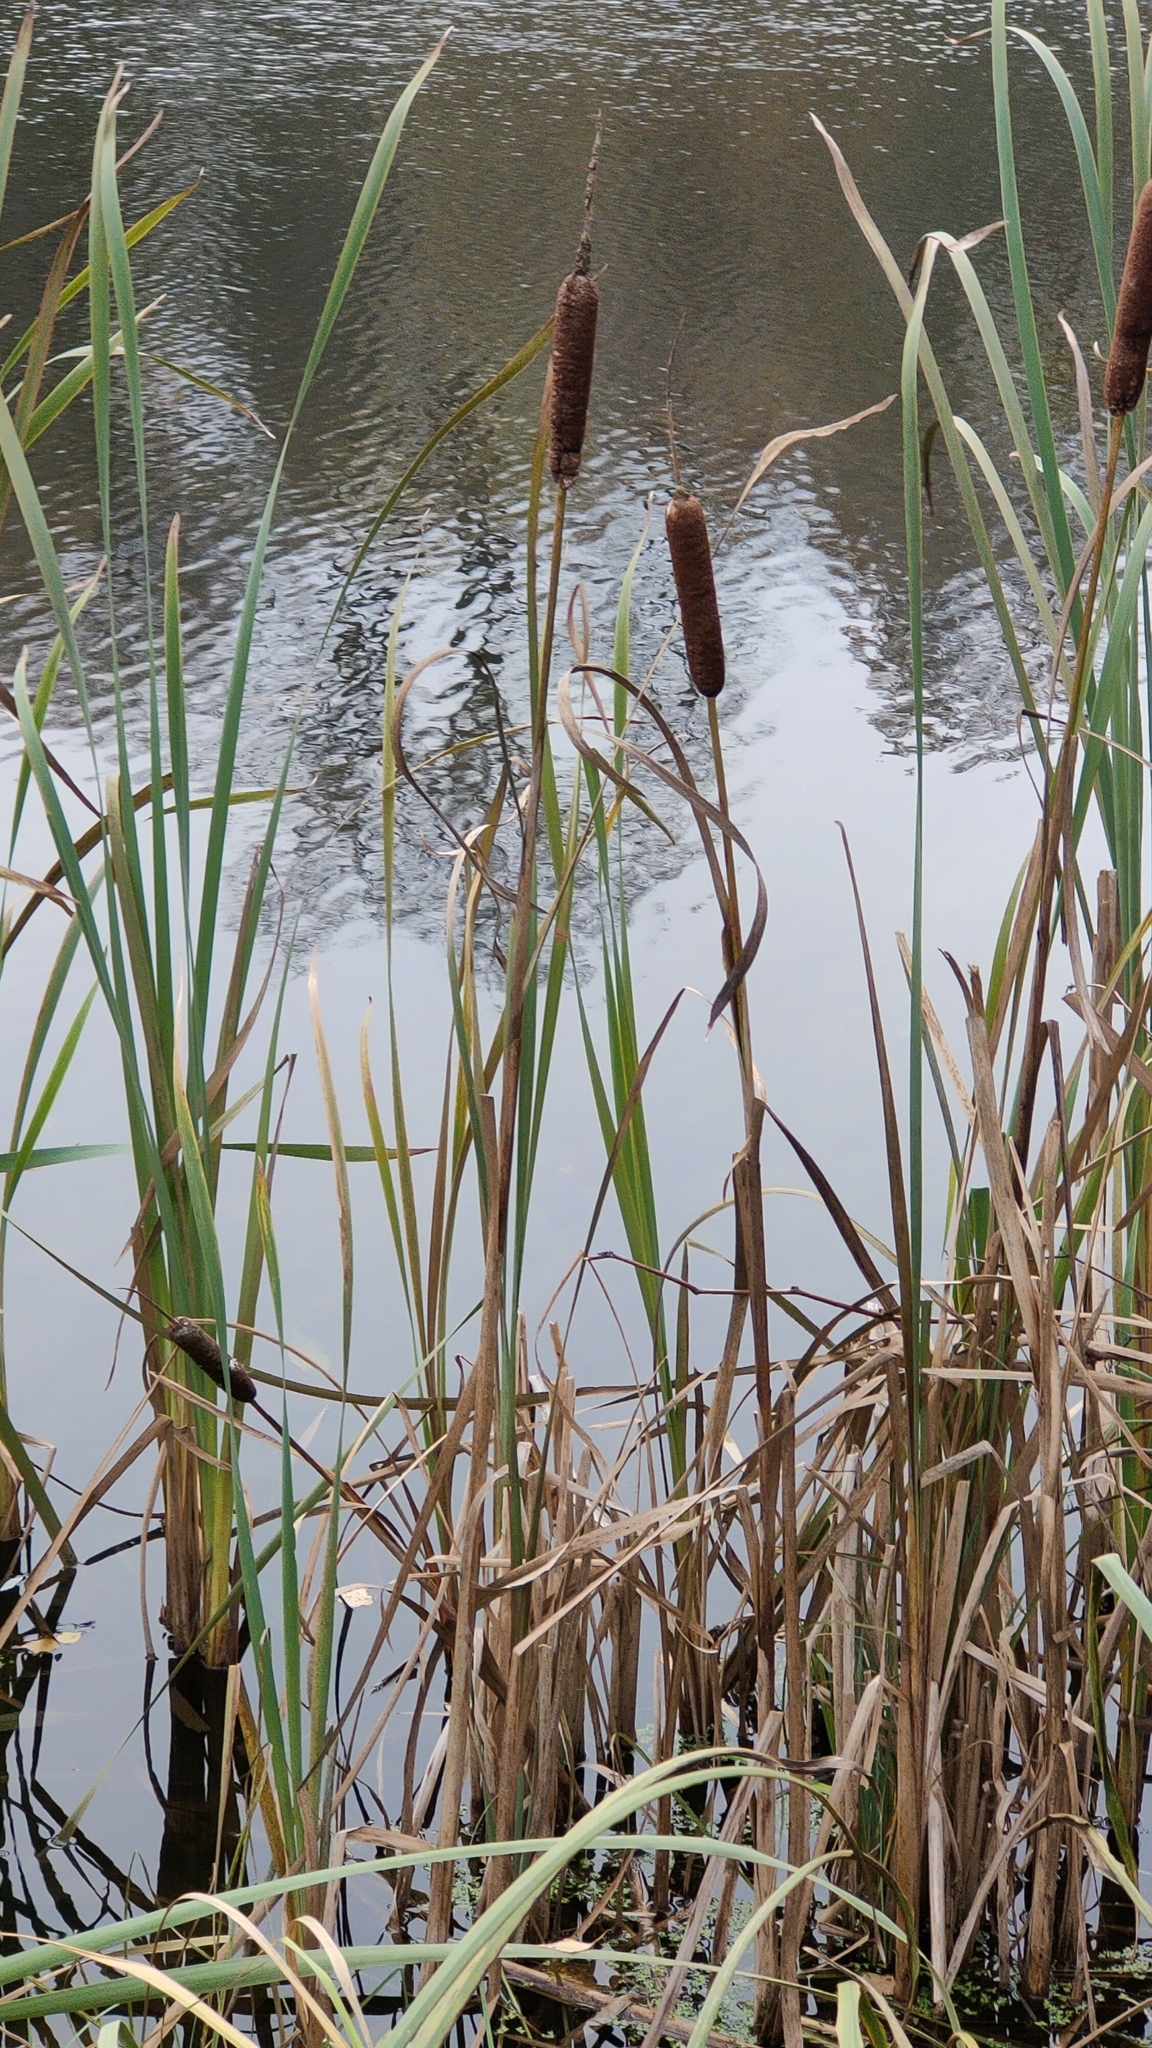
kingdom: Plantae
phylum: Tracheophyta
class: Liliopsida
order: Poales
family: Typhaceae
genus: Typha
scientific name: Typha latifolia
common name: Broadleaf cattail
